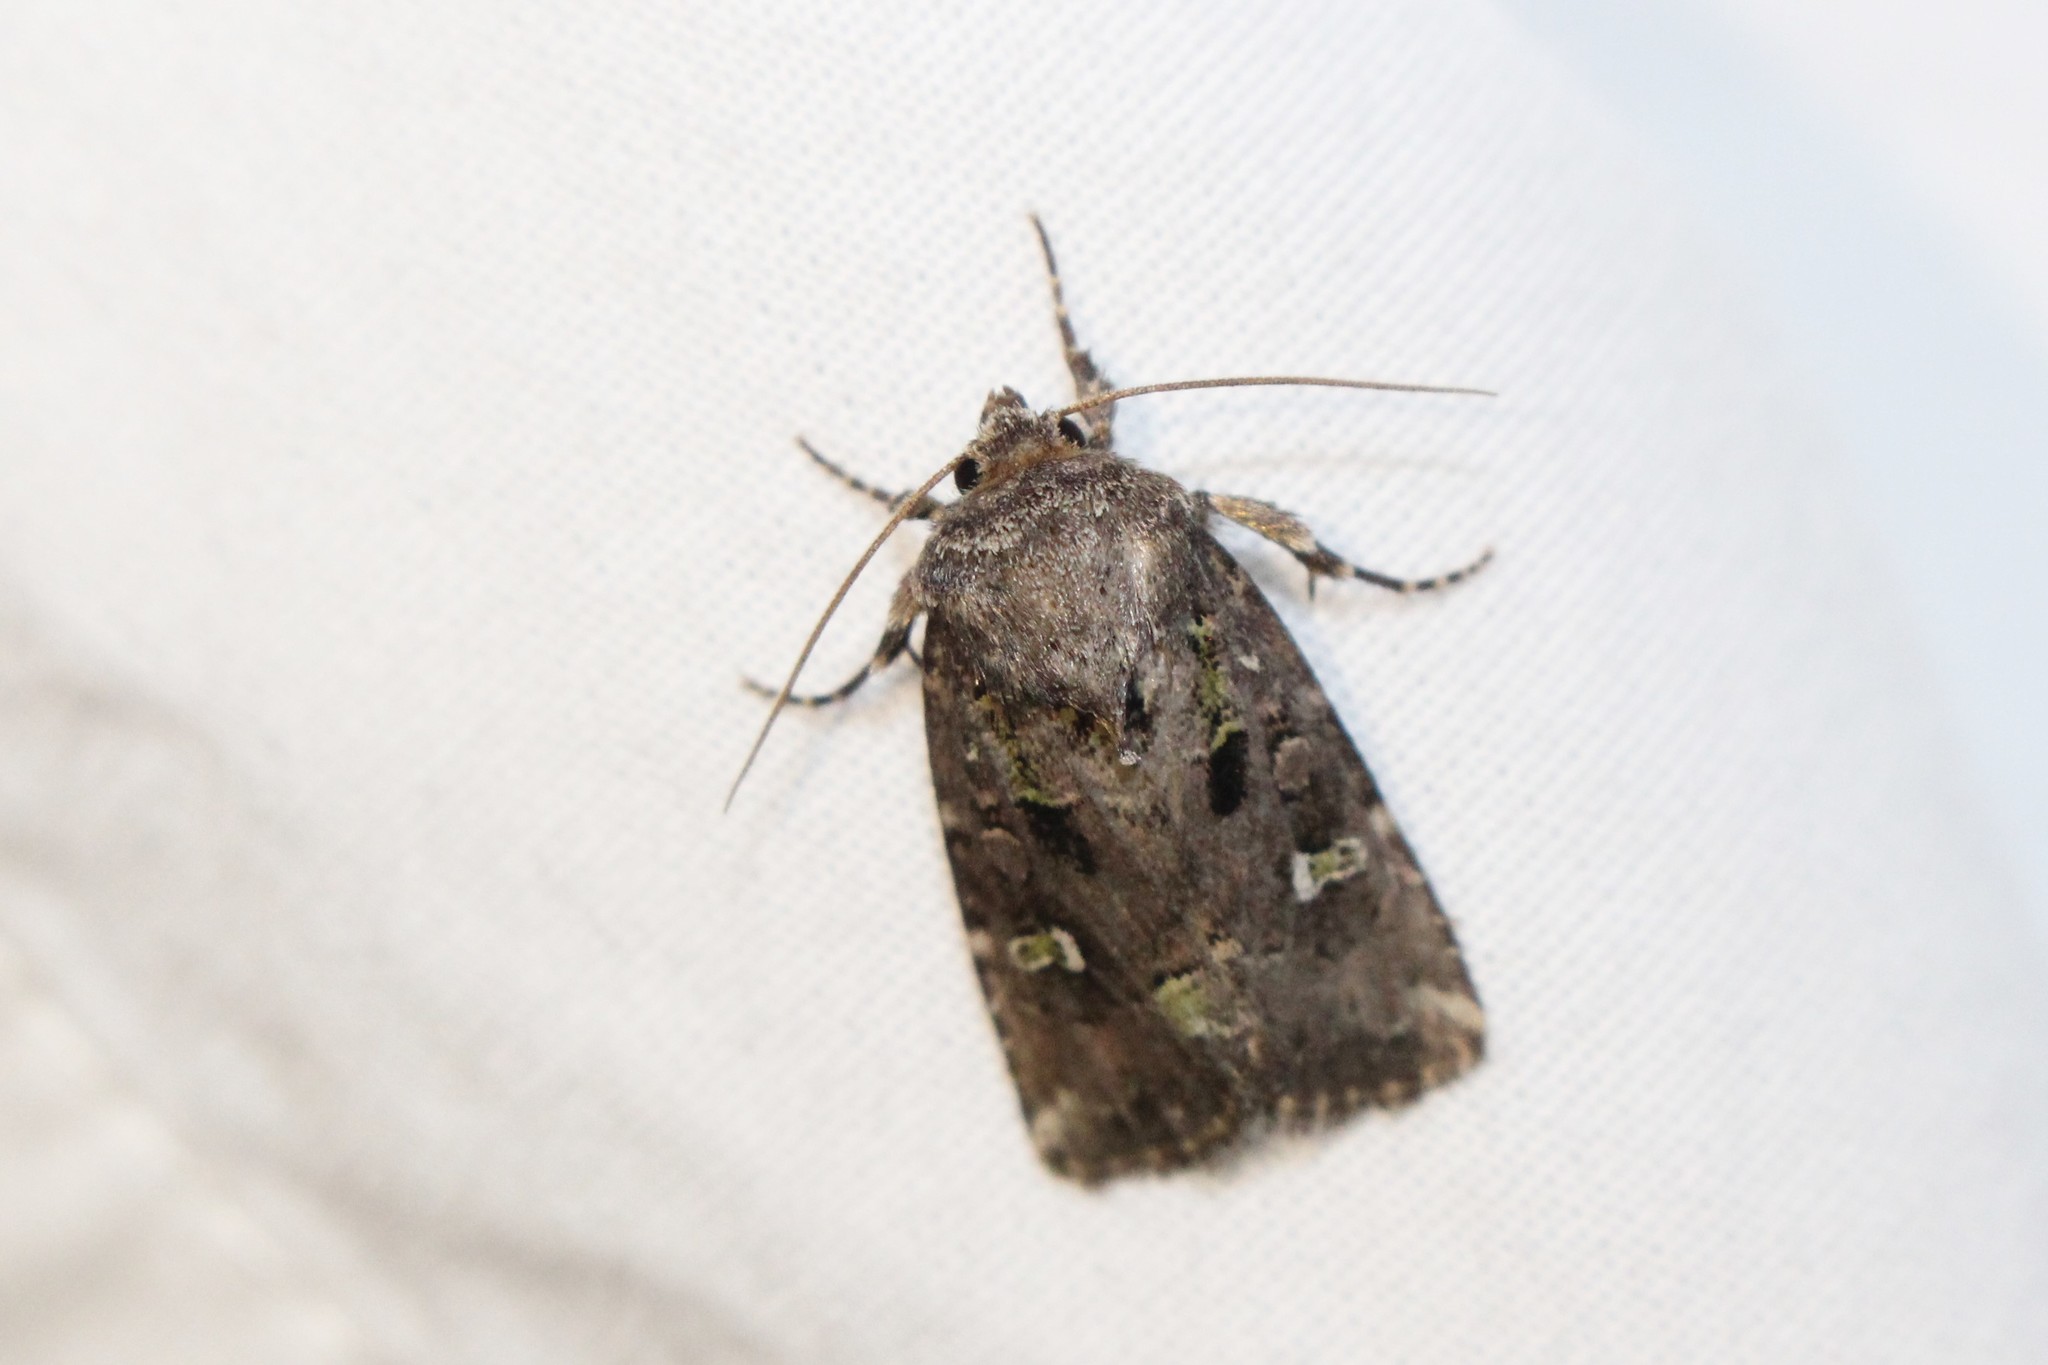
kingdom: Animalia
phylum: Arthropoda
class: Insecta
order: Lepidoptera
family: Noctuidae
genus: Lacinipolia
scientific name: Lacinipolia renigera
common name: Kidney-spotted minor
